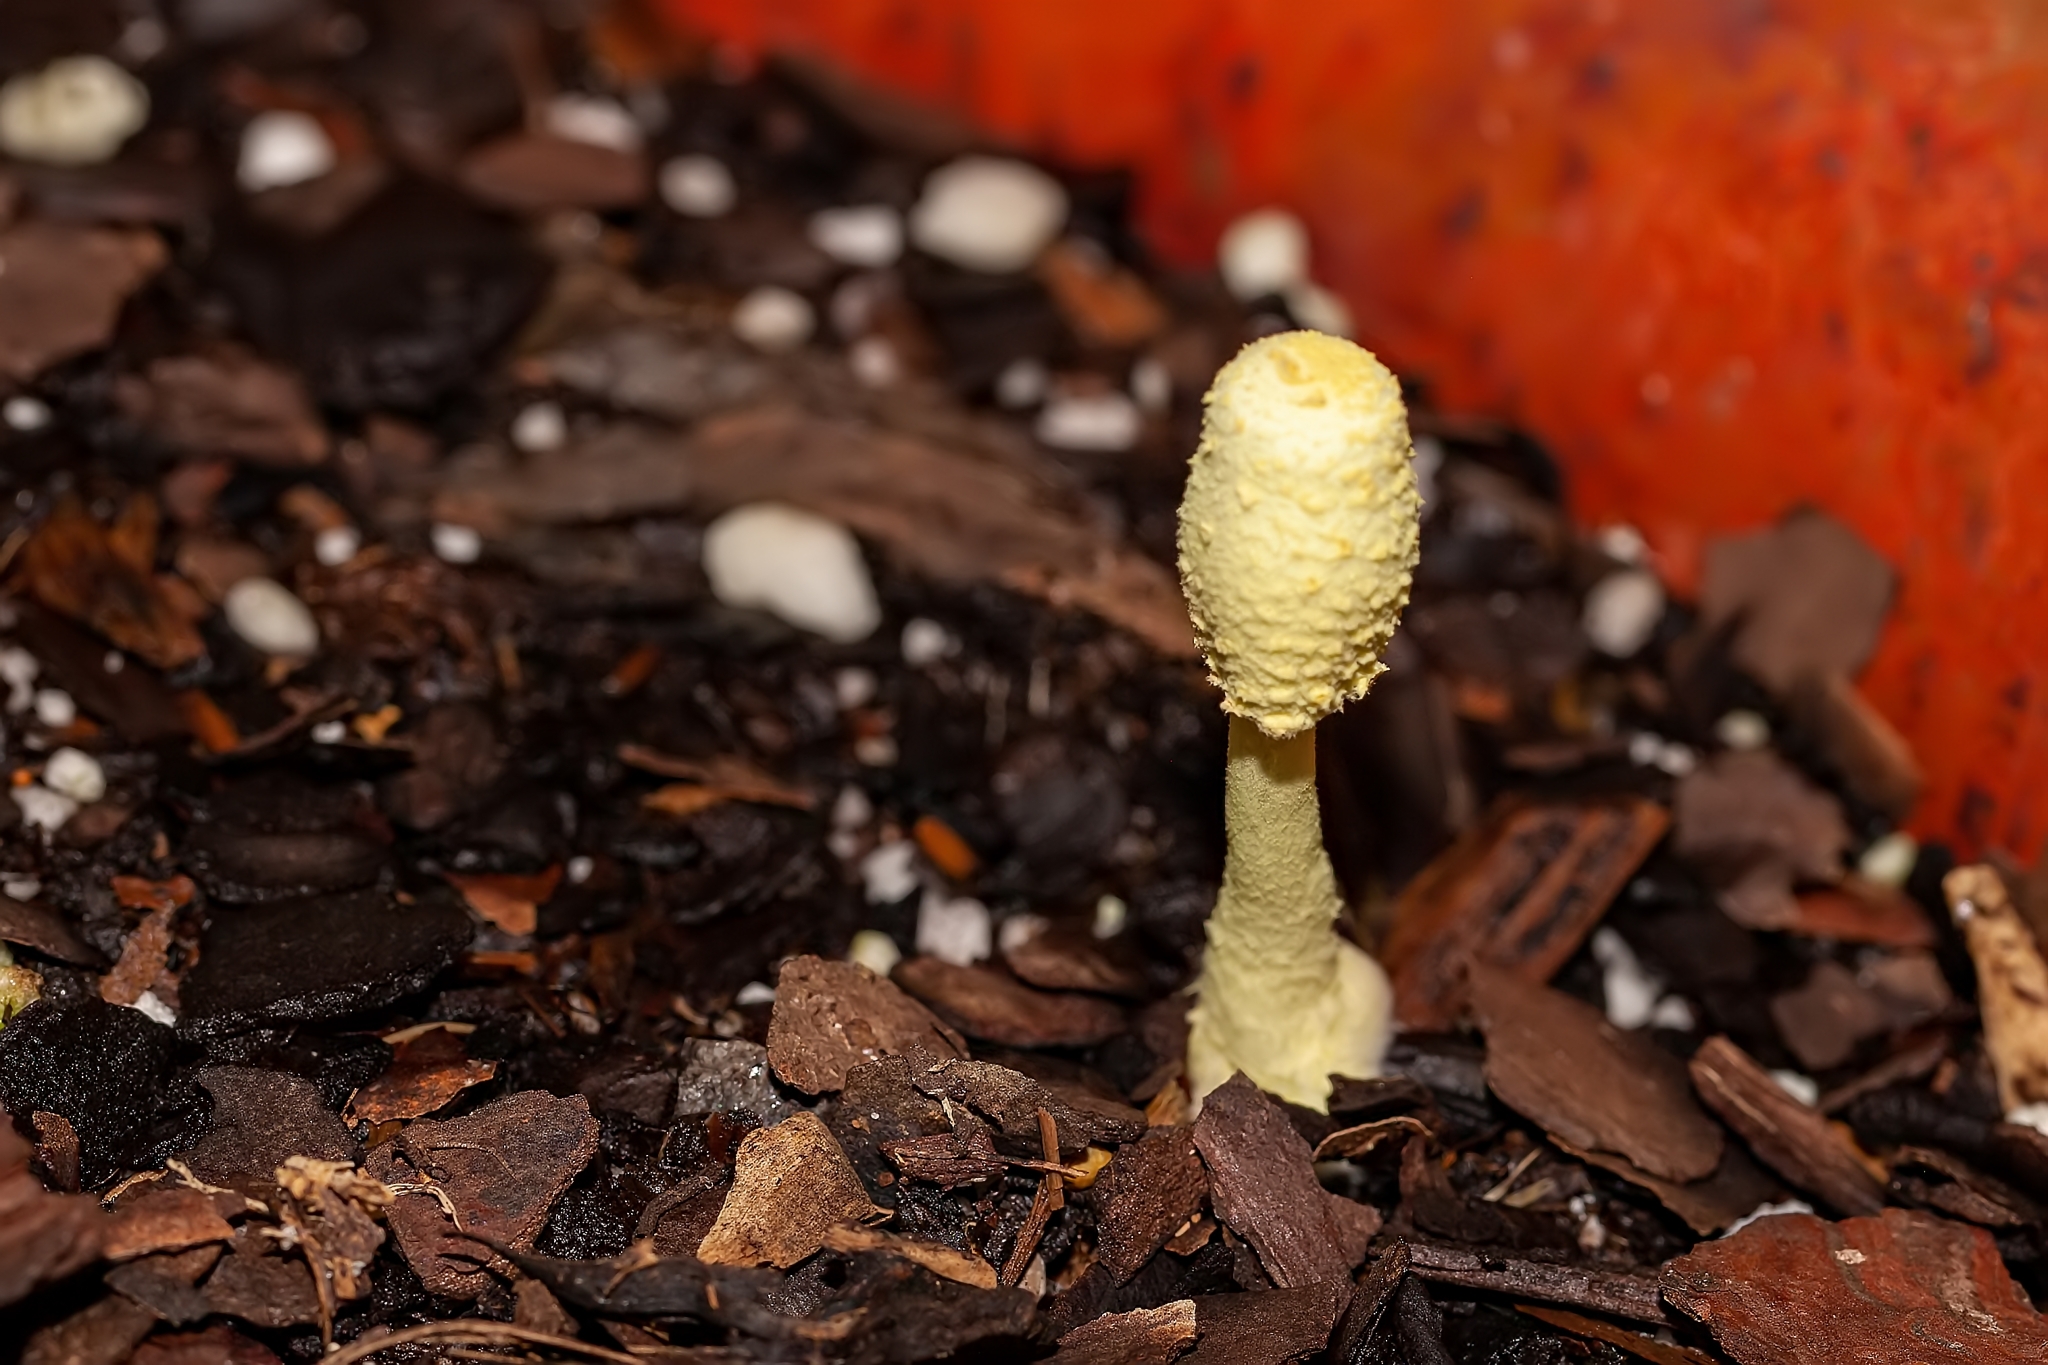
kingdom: Fungi
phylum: Basidiomycota
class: Agaricomycetes
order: Agaricales
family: Agaricaceae
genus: Leucocoprinus
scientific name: Leucocoprinus birnbaumii
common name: Plantpot dapperling
